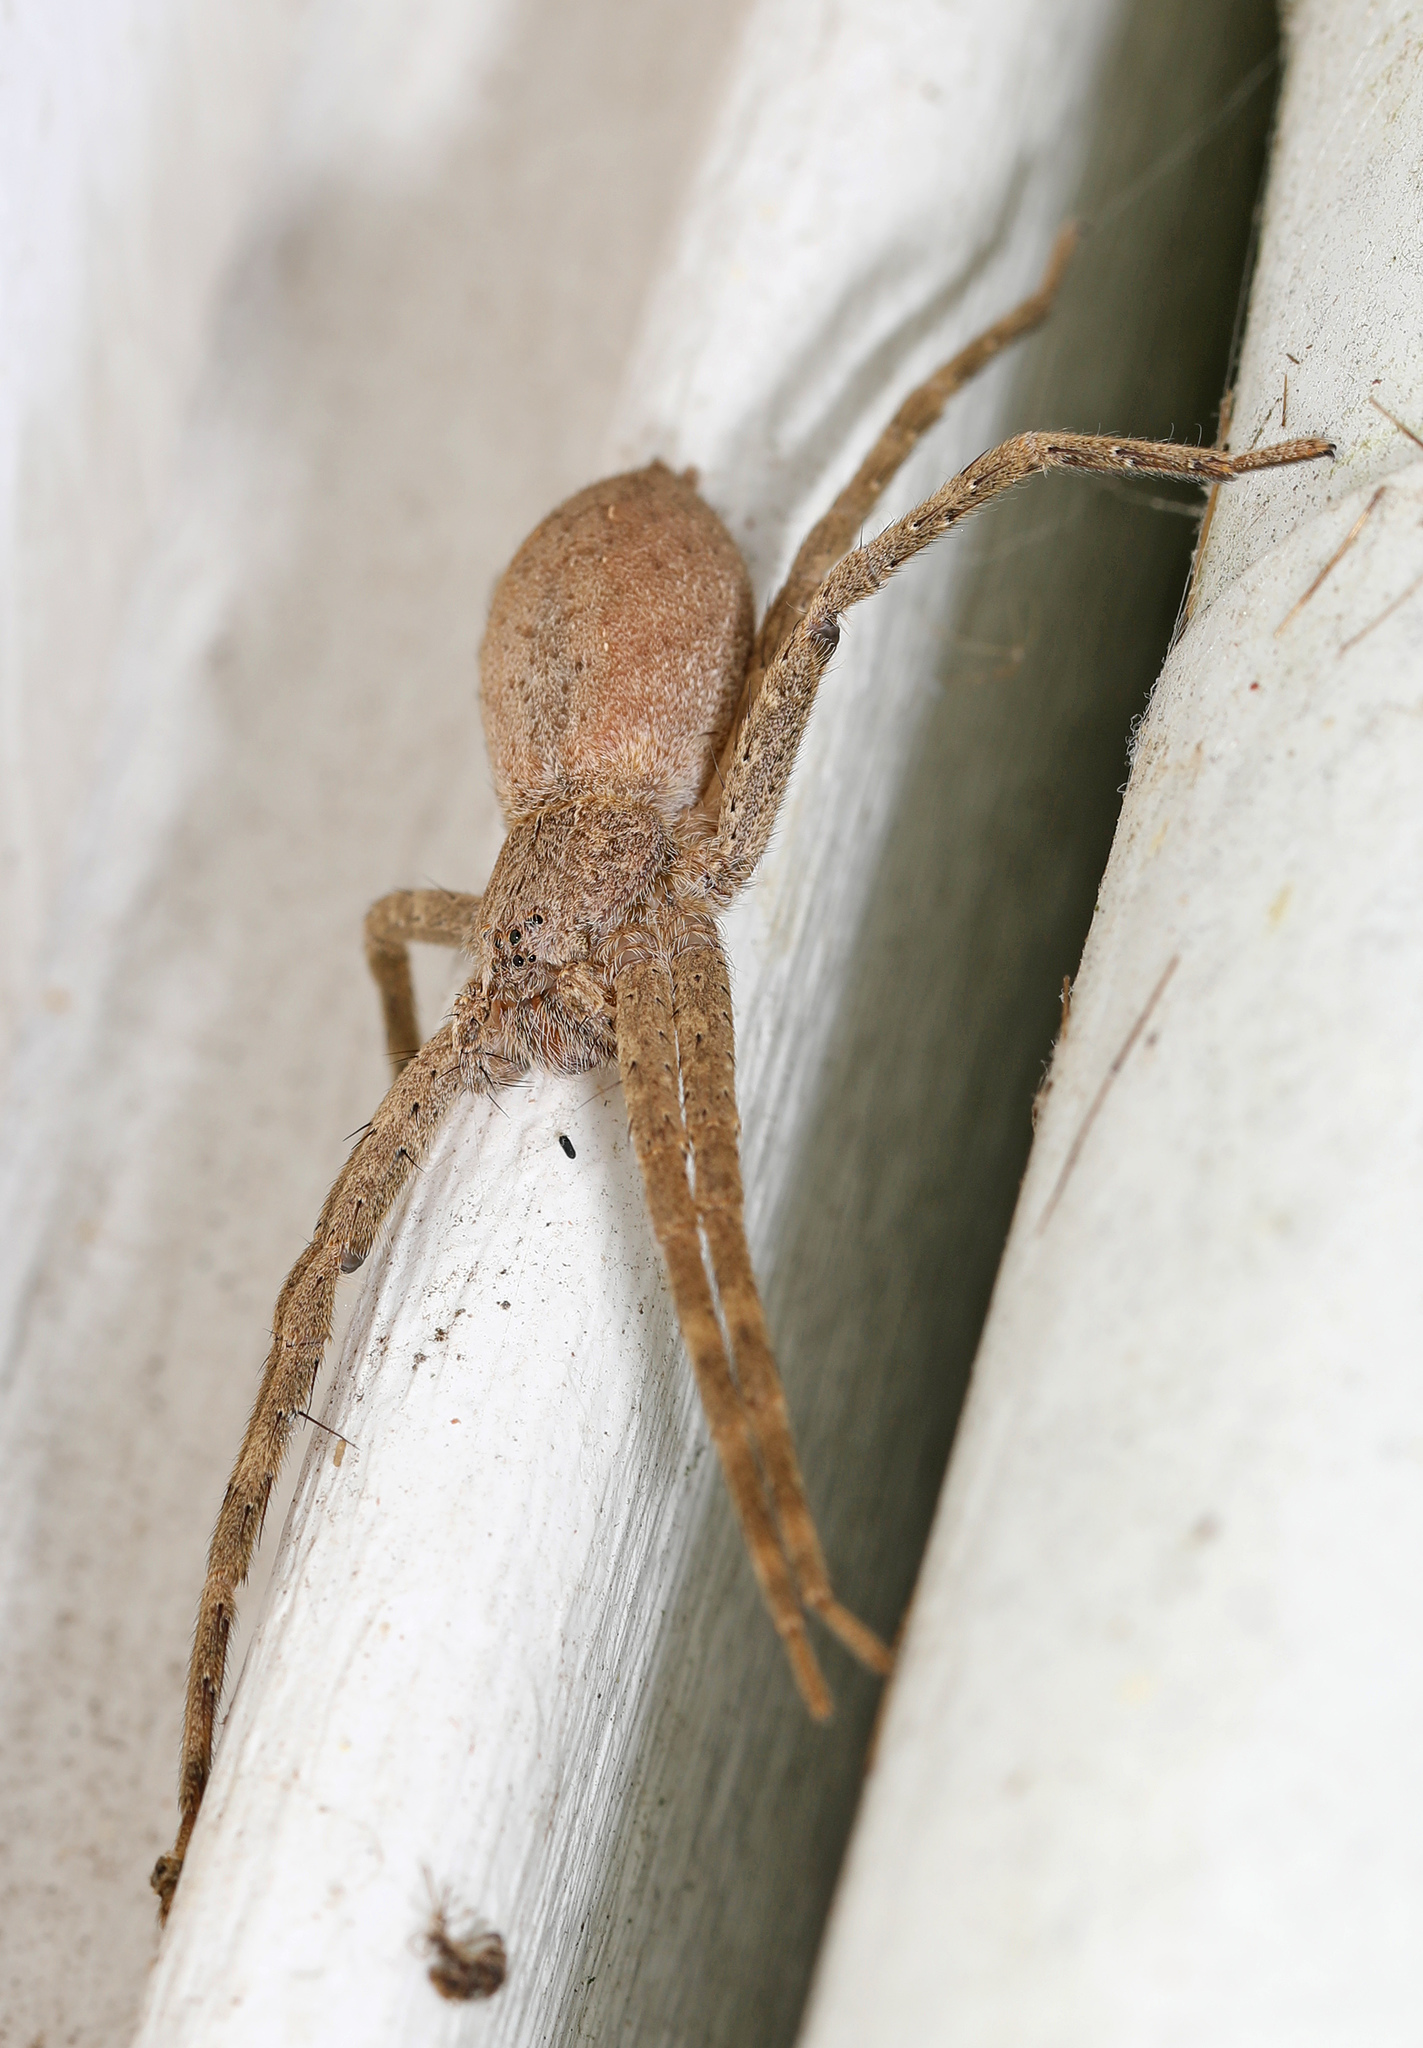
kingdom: Animalia
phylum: Arthropoda
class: Arachnida
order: Araneae
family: Pisauridae
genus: Pisaurina
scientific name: Pisaurina mira
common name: American nursery web spider
